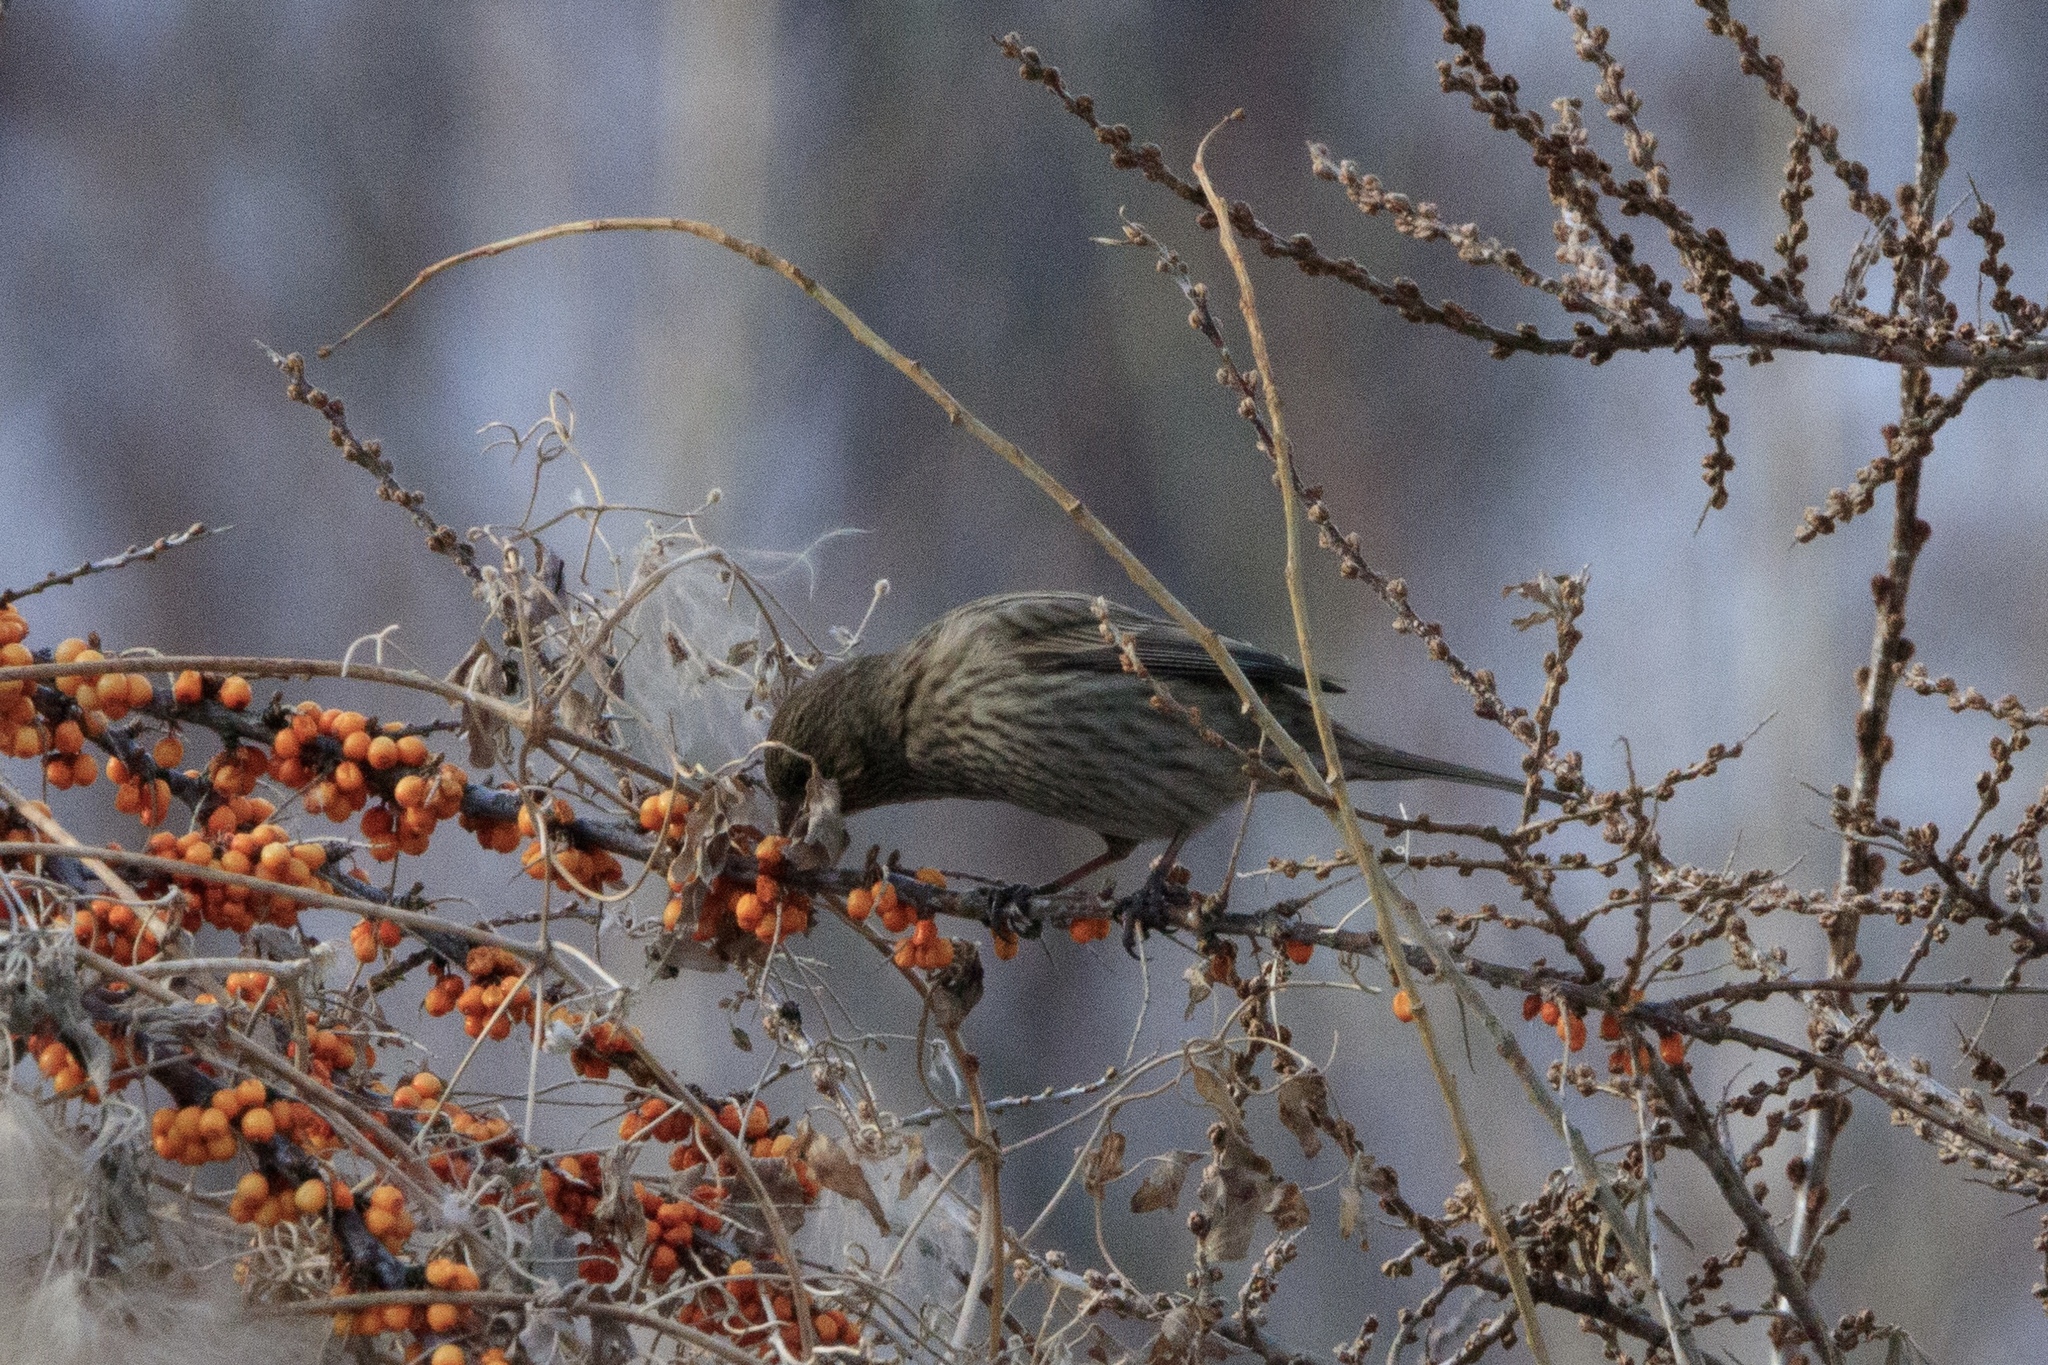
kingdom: Animalia
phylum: Chordata
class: Aves
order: Passeriformes
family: Fringillidae
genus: Carpodacus
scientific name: Carpodacus rhodochlamys
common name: Red-mantled rosefinch
